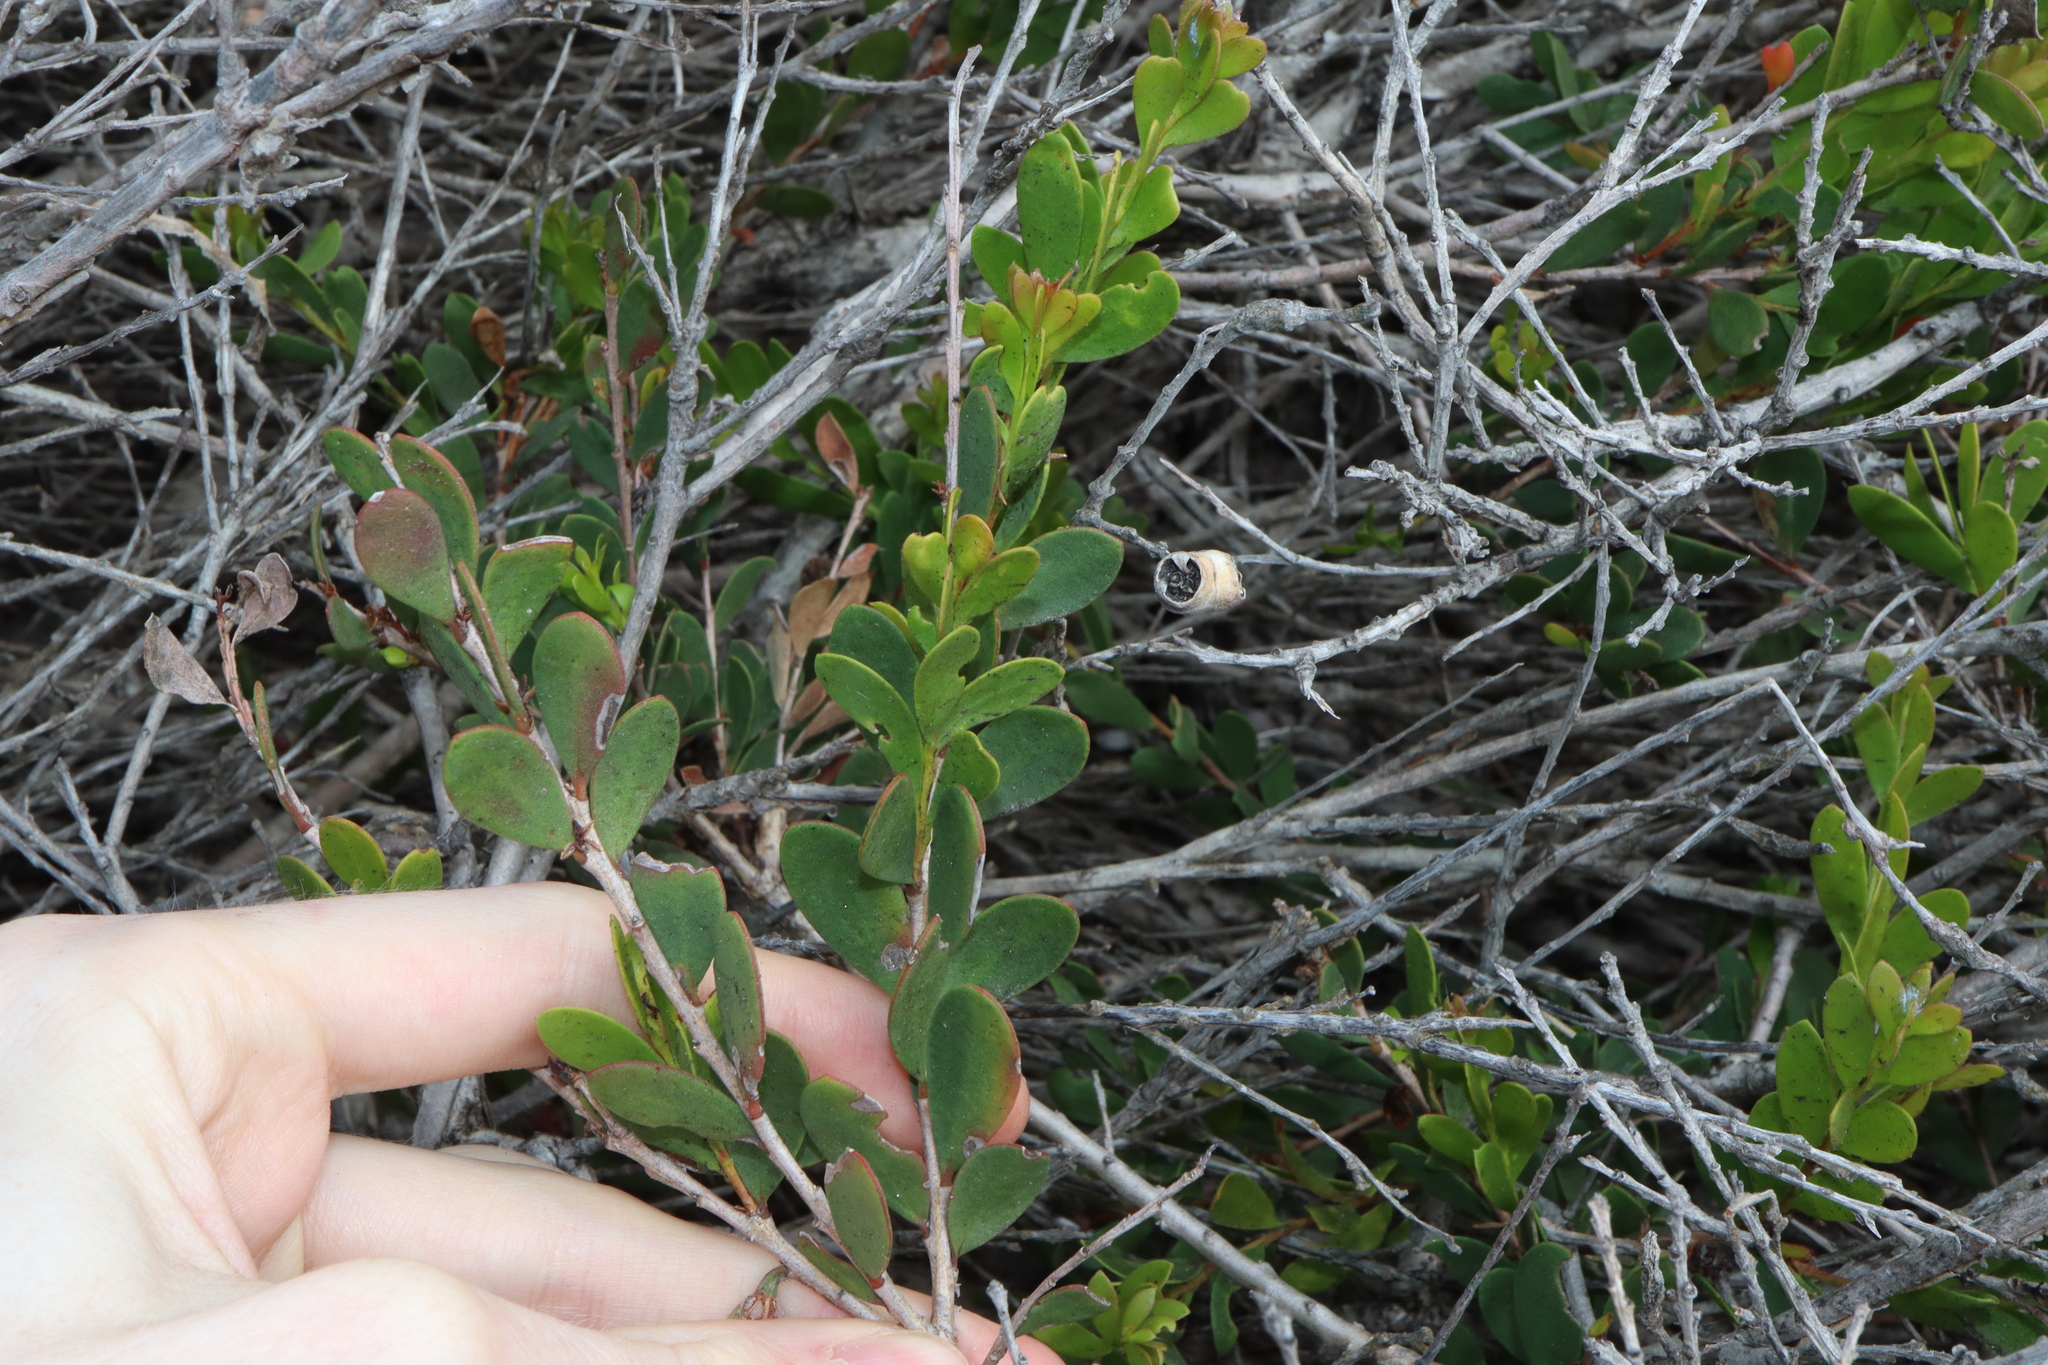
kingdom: Plantae
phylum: Tracheophyta
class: Magnoliopsida
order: Myrtales
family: Myrtaceae
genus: Melaleuca
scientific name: Melaleuca nesophila
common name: Mauve honey myrtle
